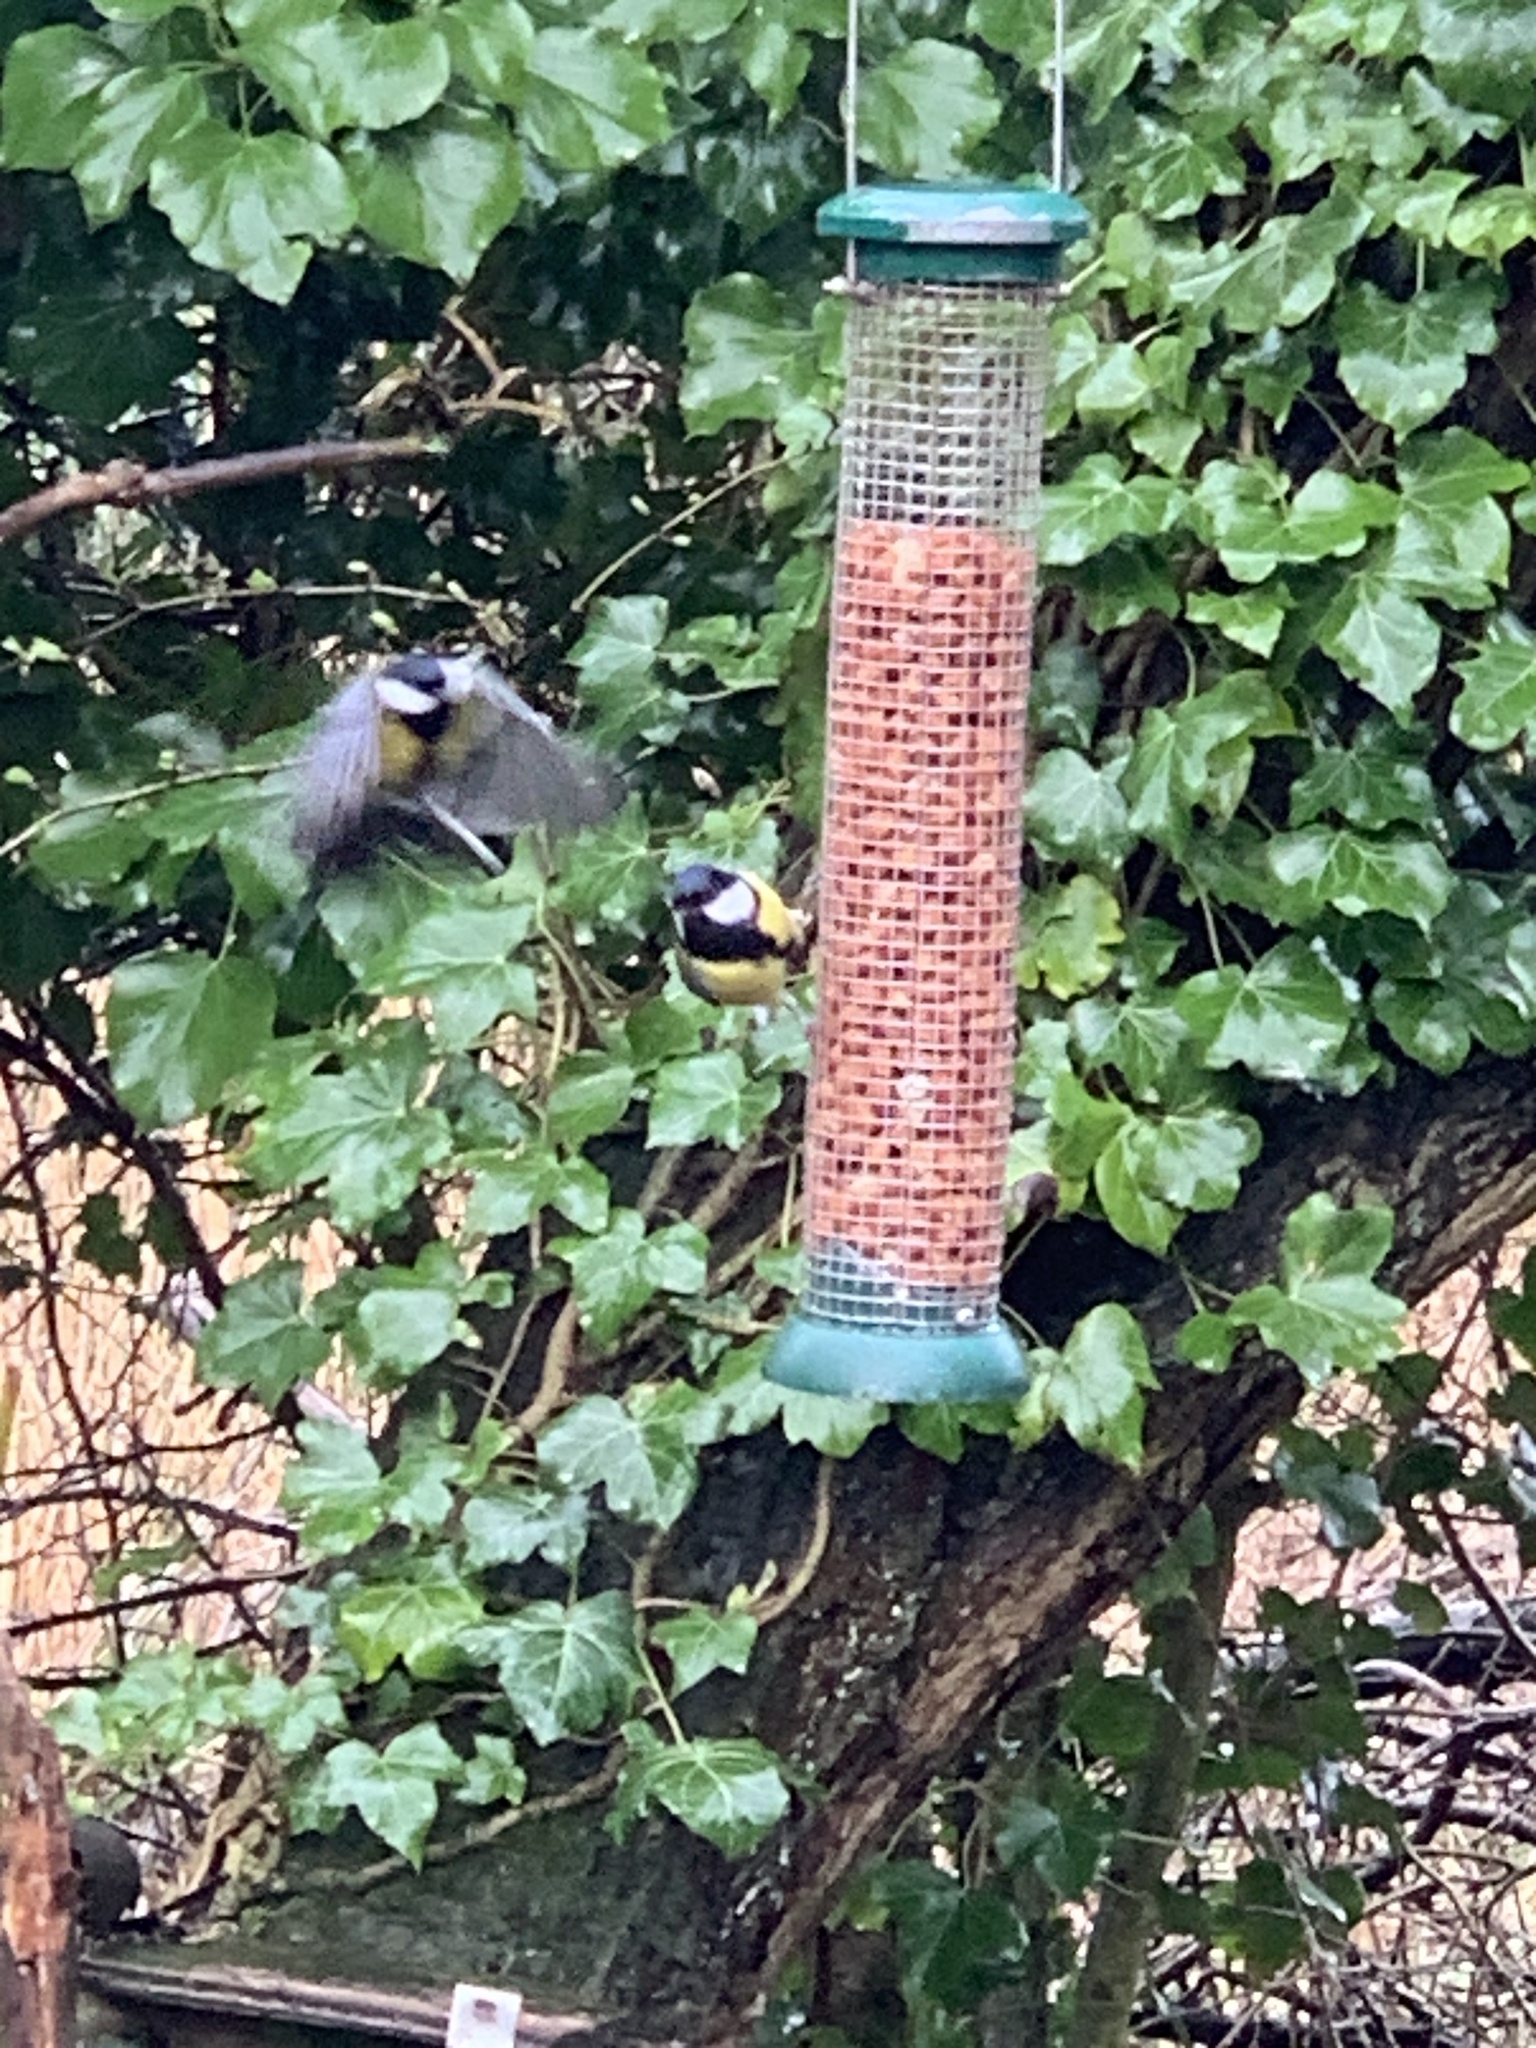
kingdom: Animalia
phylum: Chordata
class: Aves
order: Passeriformes
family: Paridae
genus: Parus
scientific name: Parus major
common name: Great tit
